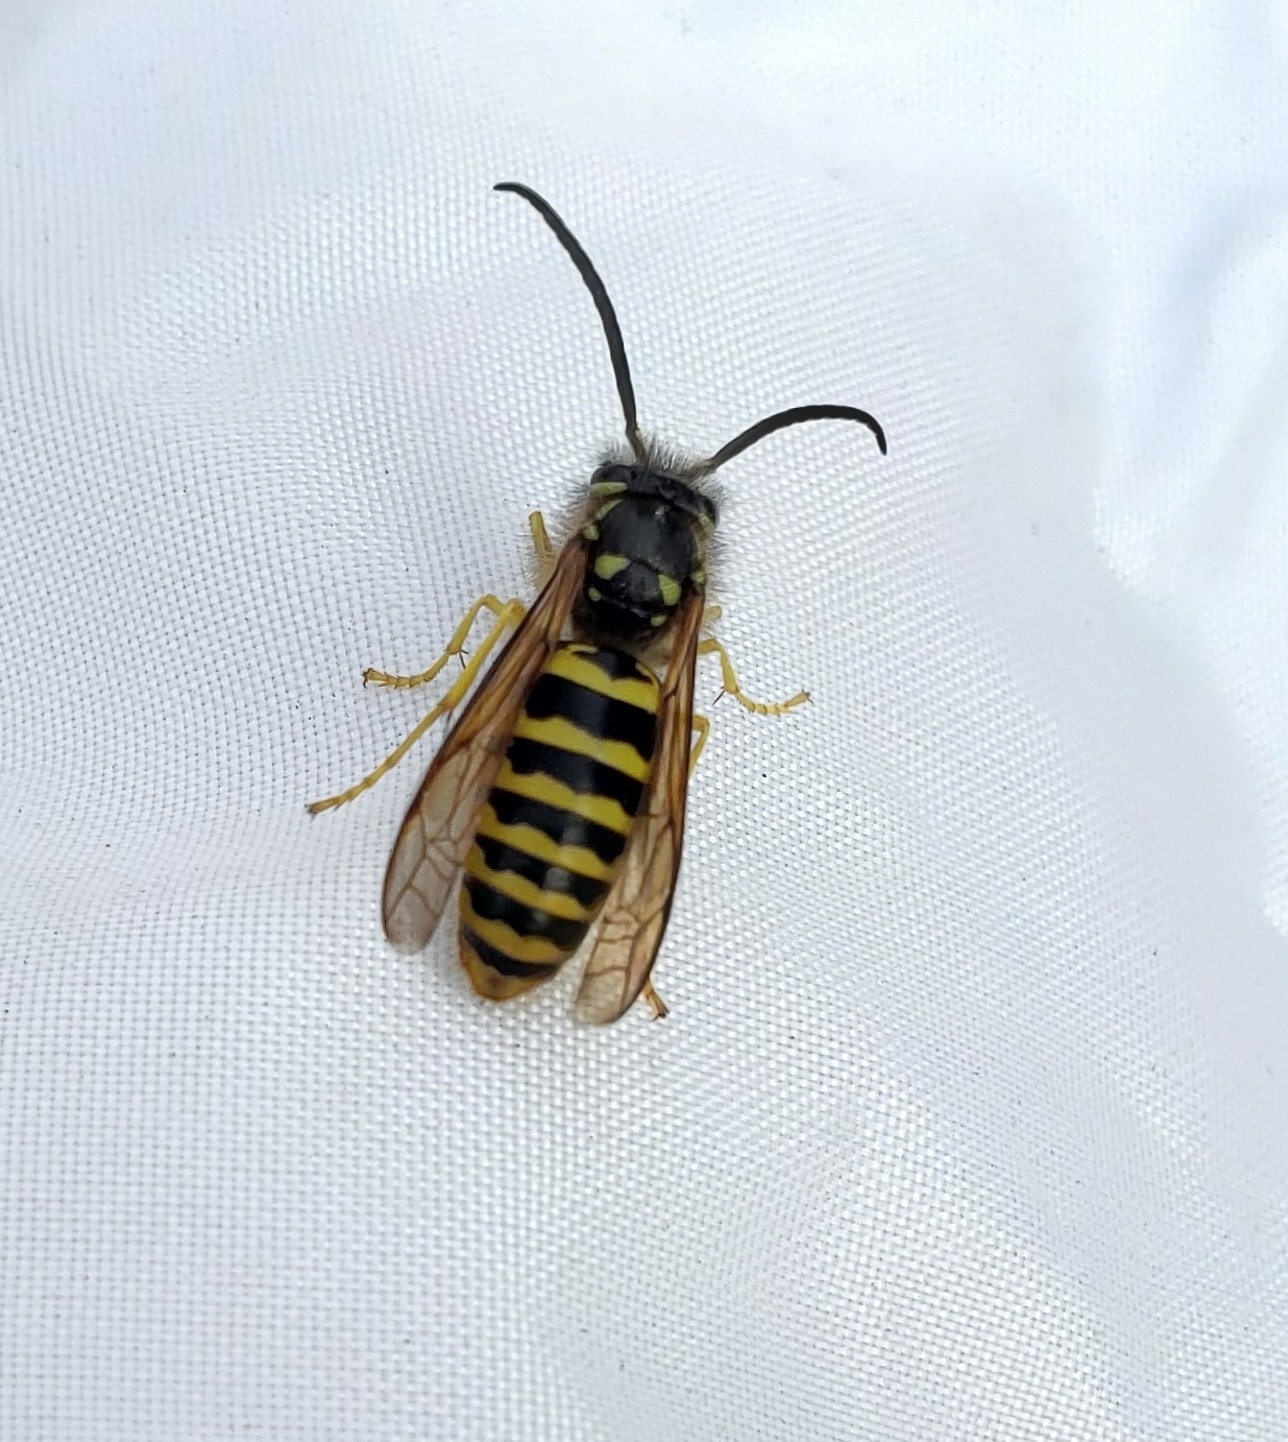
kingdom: Animalia
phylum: Arthropoda
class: Insecta
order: Hymenoptera
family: Vespidae
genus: Vespula
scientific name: Vespula maculifrons
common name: Eastern yellowjacket
